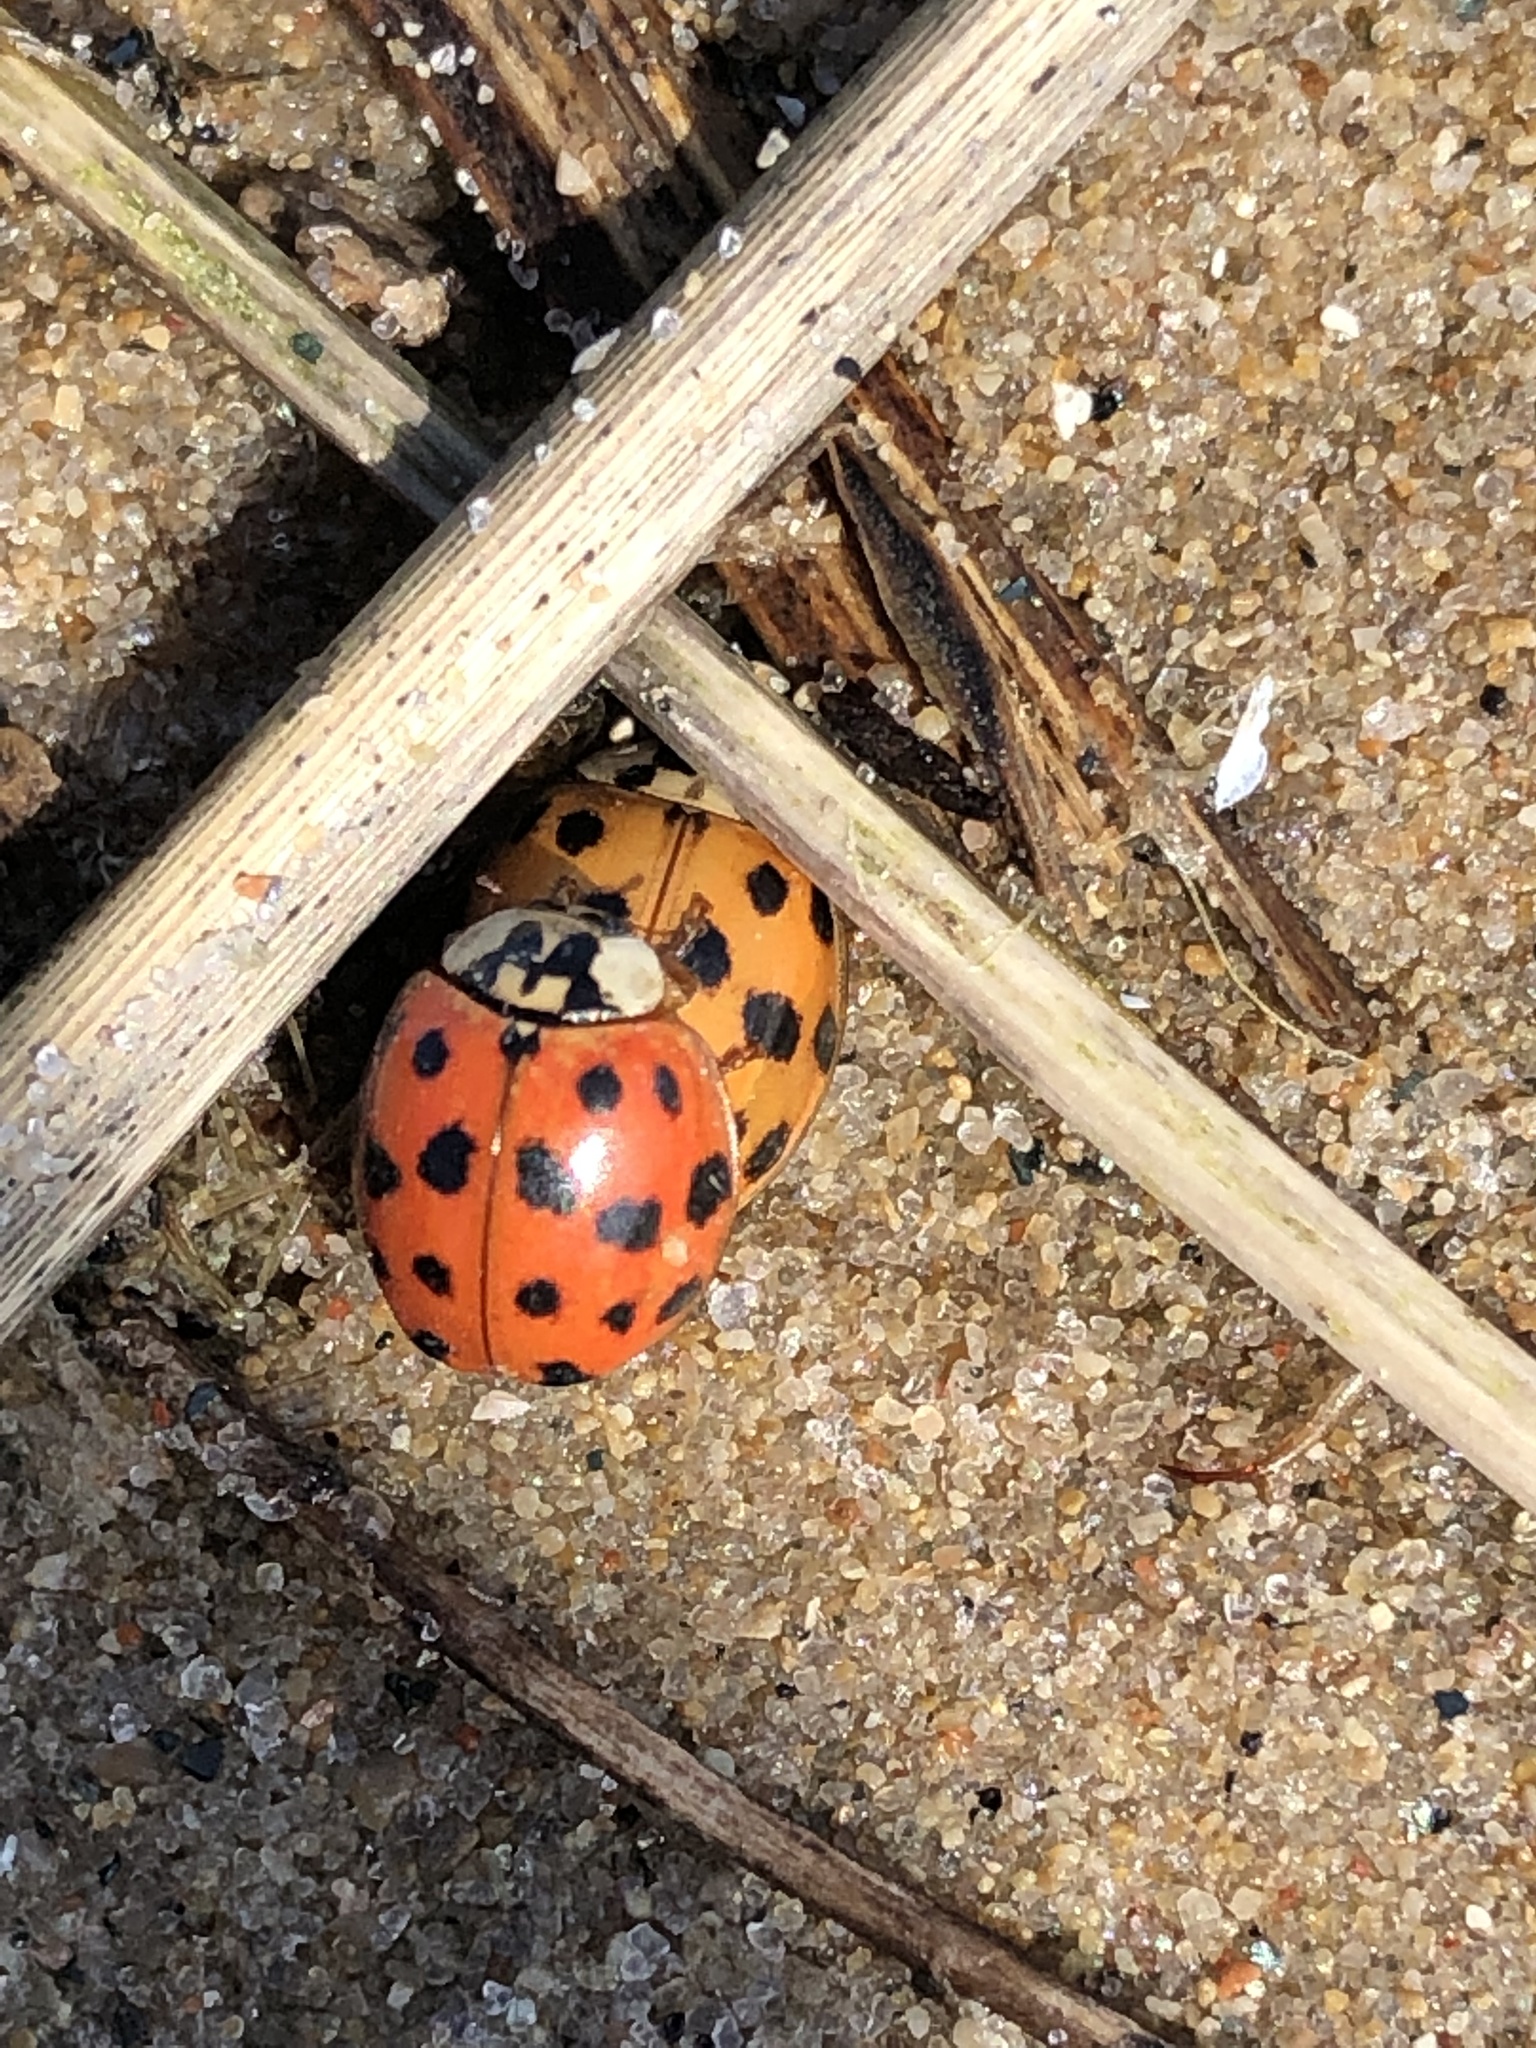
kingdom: Animalia
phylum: Arthropoda
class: Insecta
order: Coleoptera
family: Coccinellidae
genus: Harmonia
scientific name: Harmonia axyridis
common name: Harlequin ladybird
